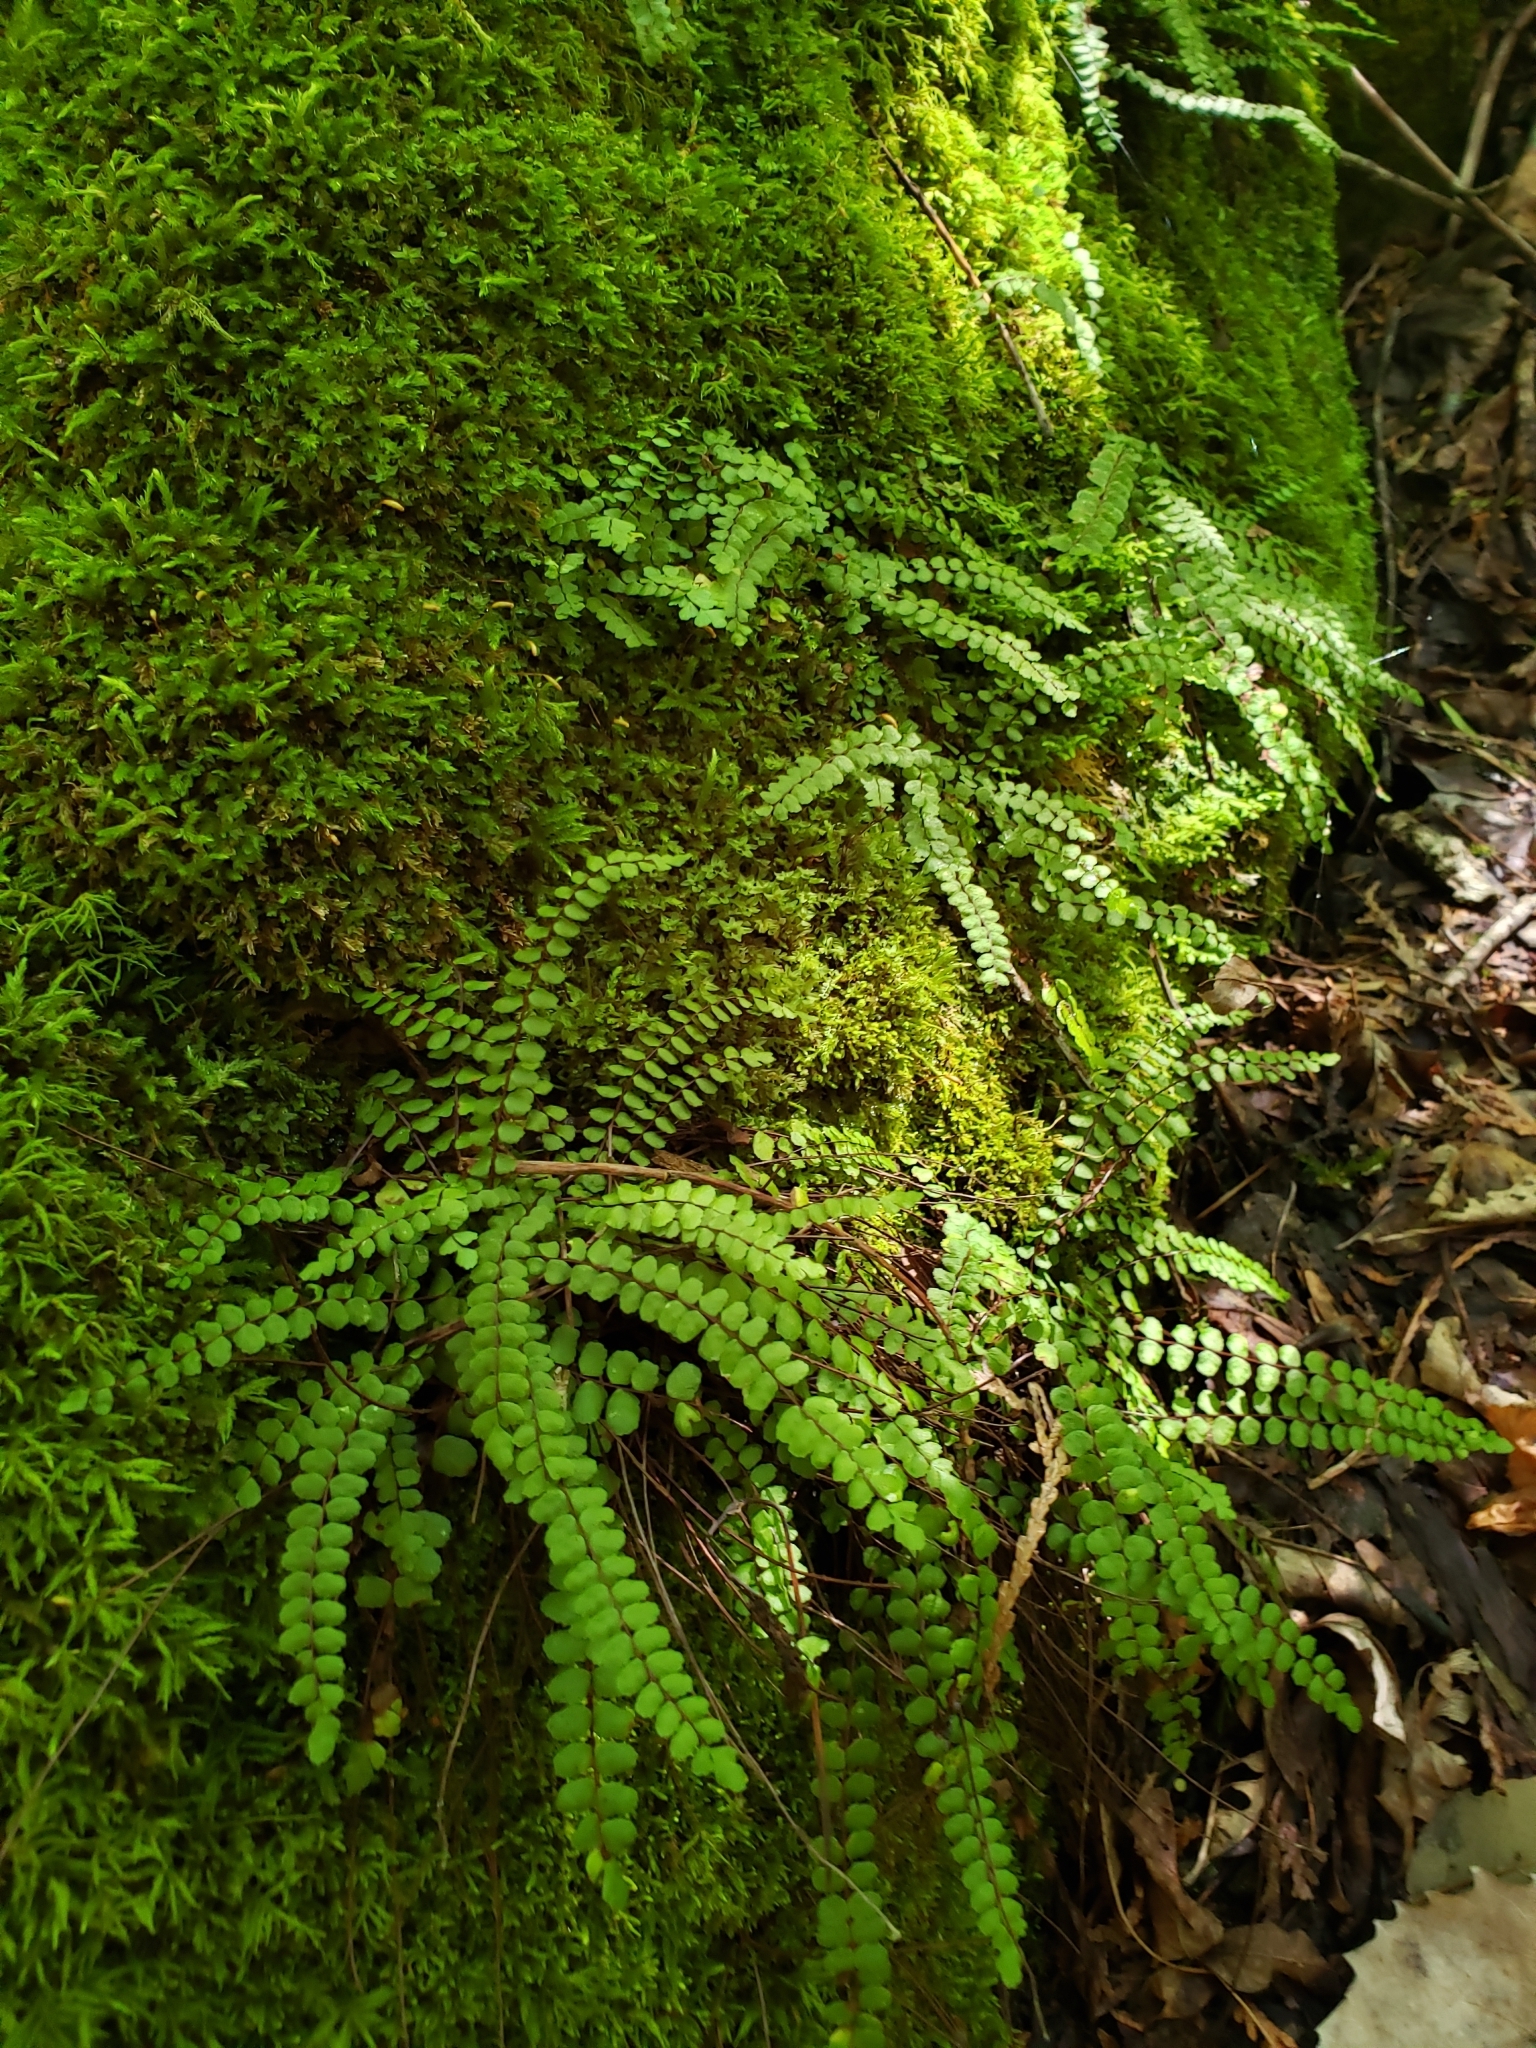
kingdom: Plantae
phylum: Tracheophyta
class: Polypodiopsida
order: Polypodiales
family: Aspleniaceae
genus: Asplenium
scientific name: Asplenium trichomanes
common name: Maidenhair spleenwort
